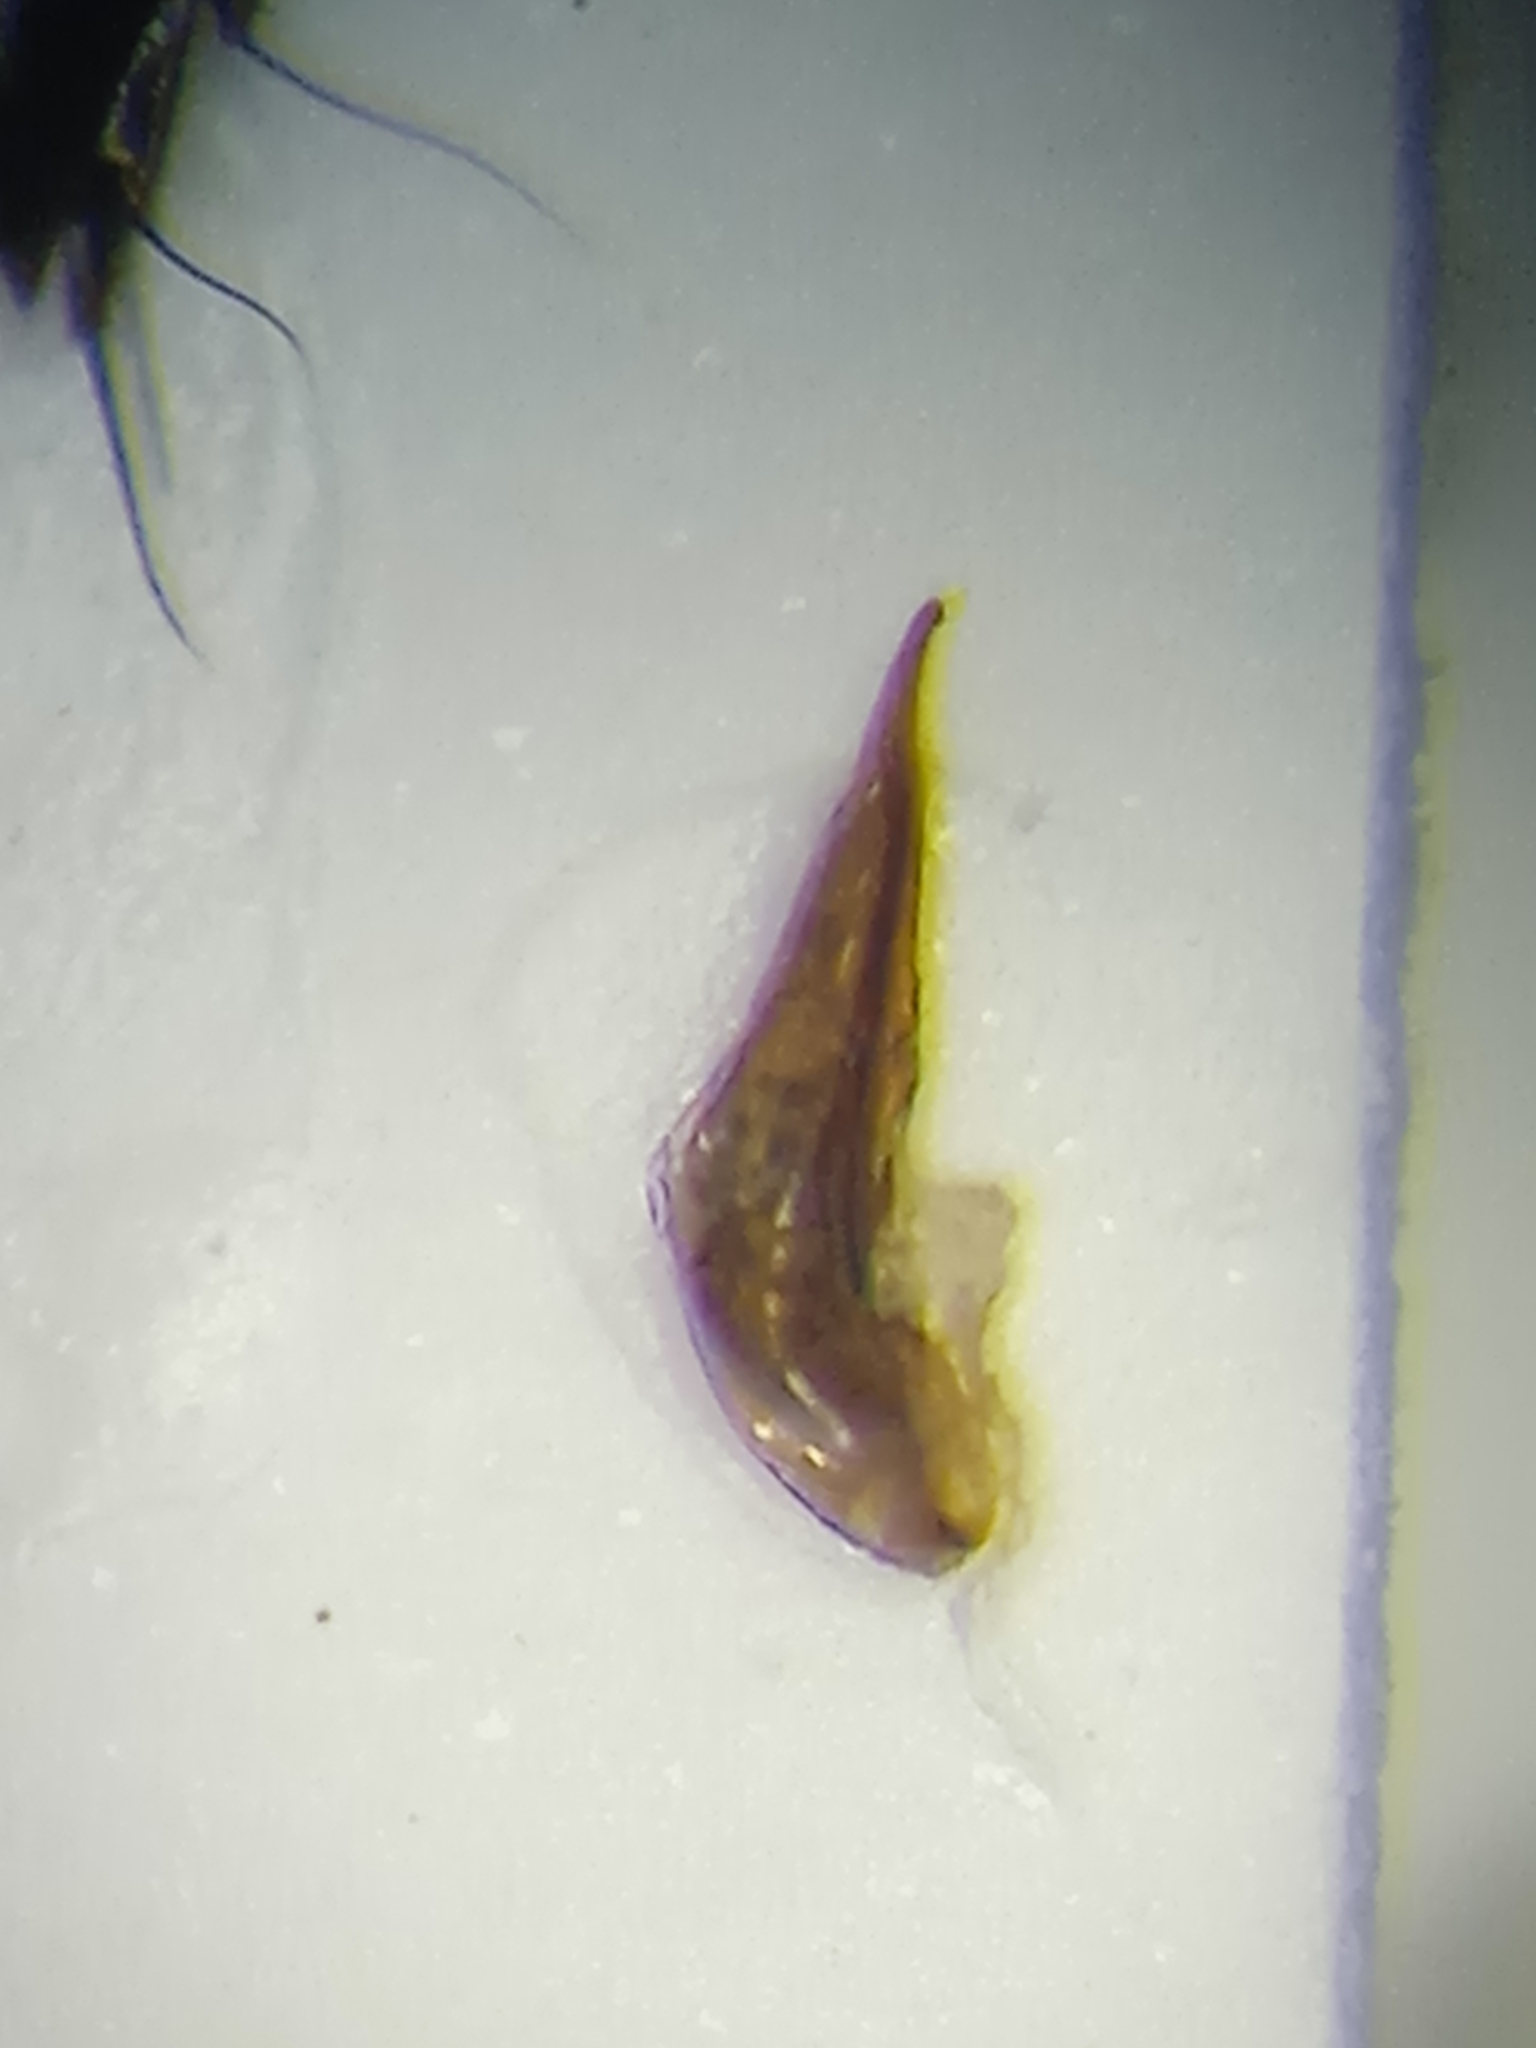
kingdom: Animalia
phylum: Arthropoda
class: Insecta
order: Coleoptera
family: Staphylinidae
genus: Tachinus
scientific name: Tachinus rufipes
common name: Rove beetle
